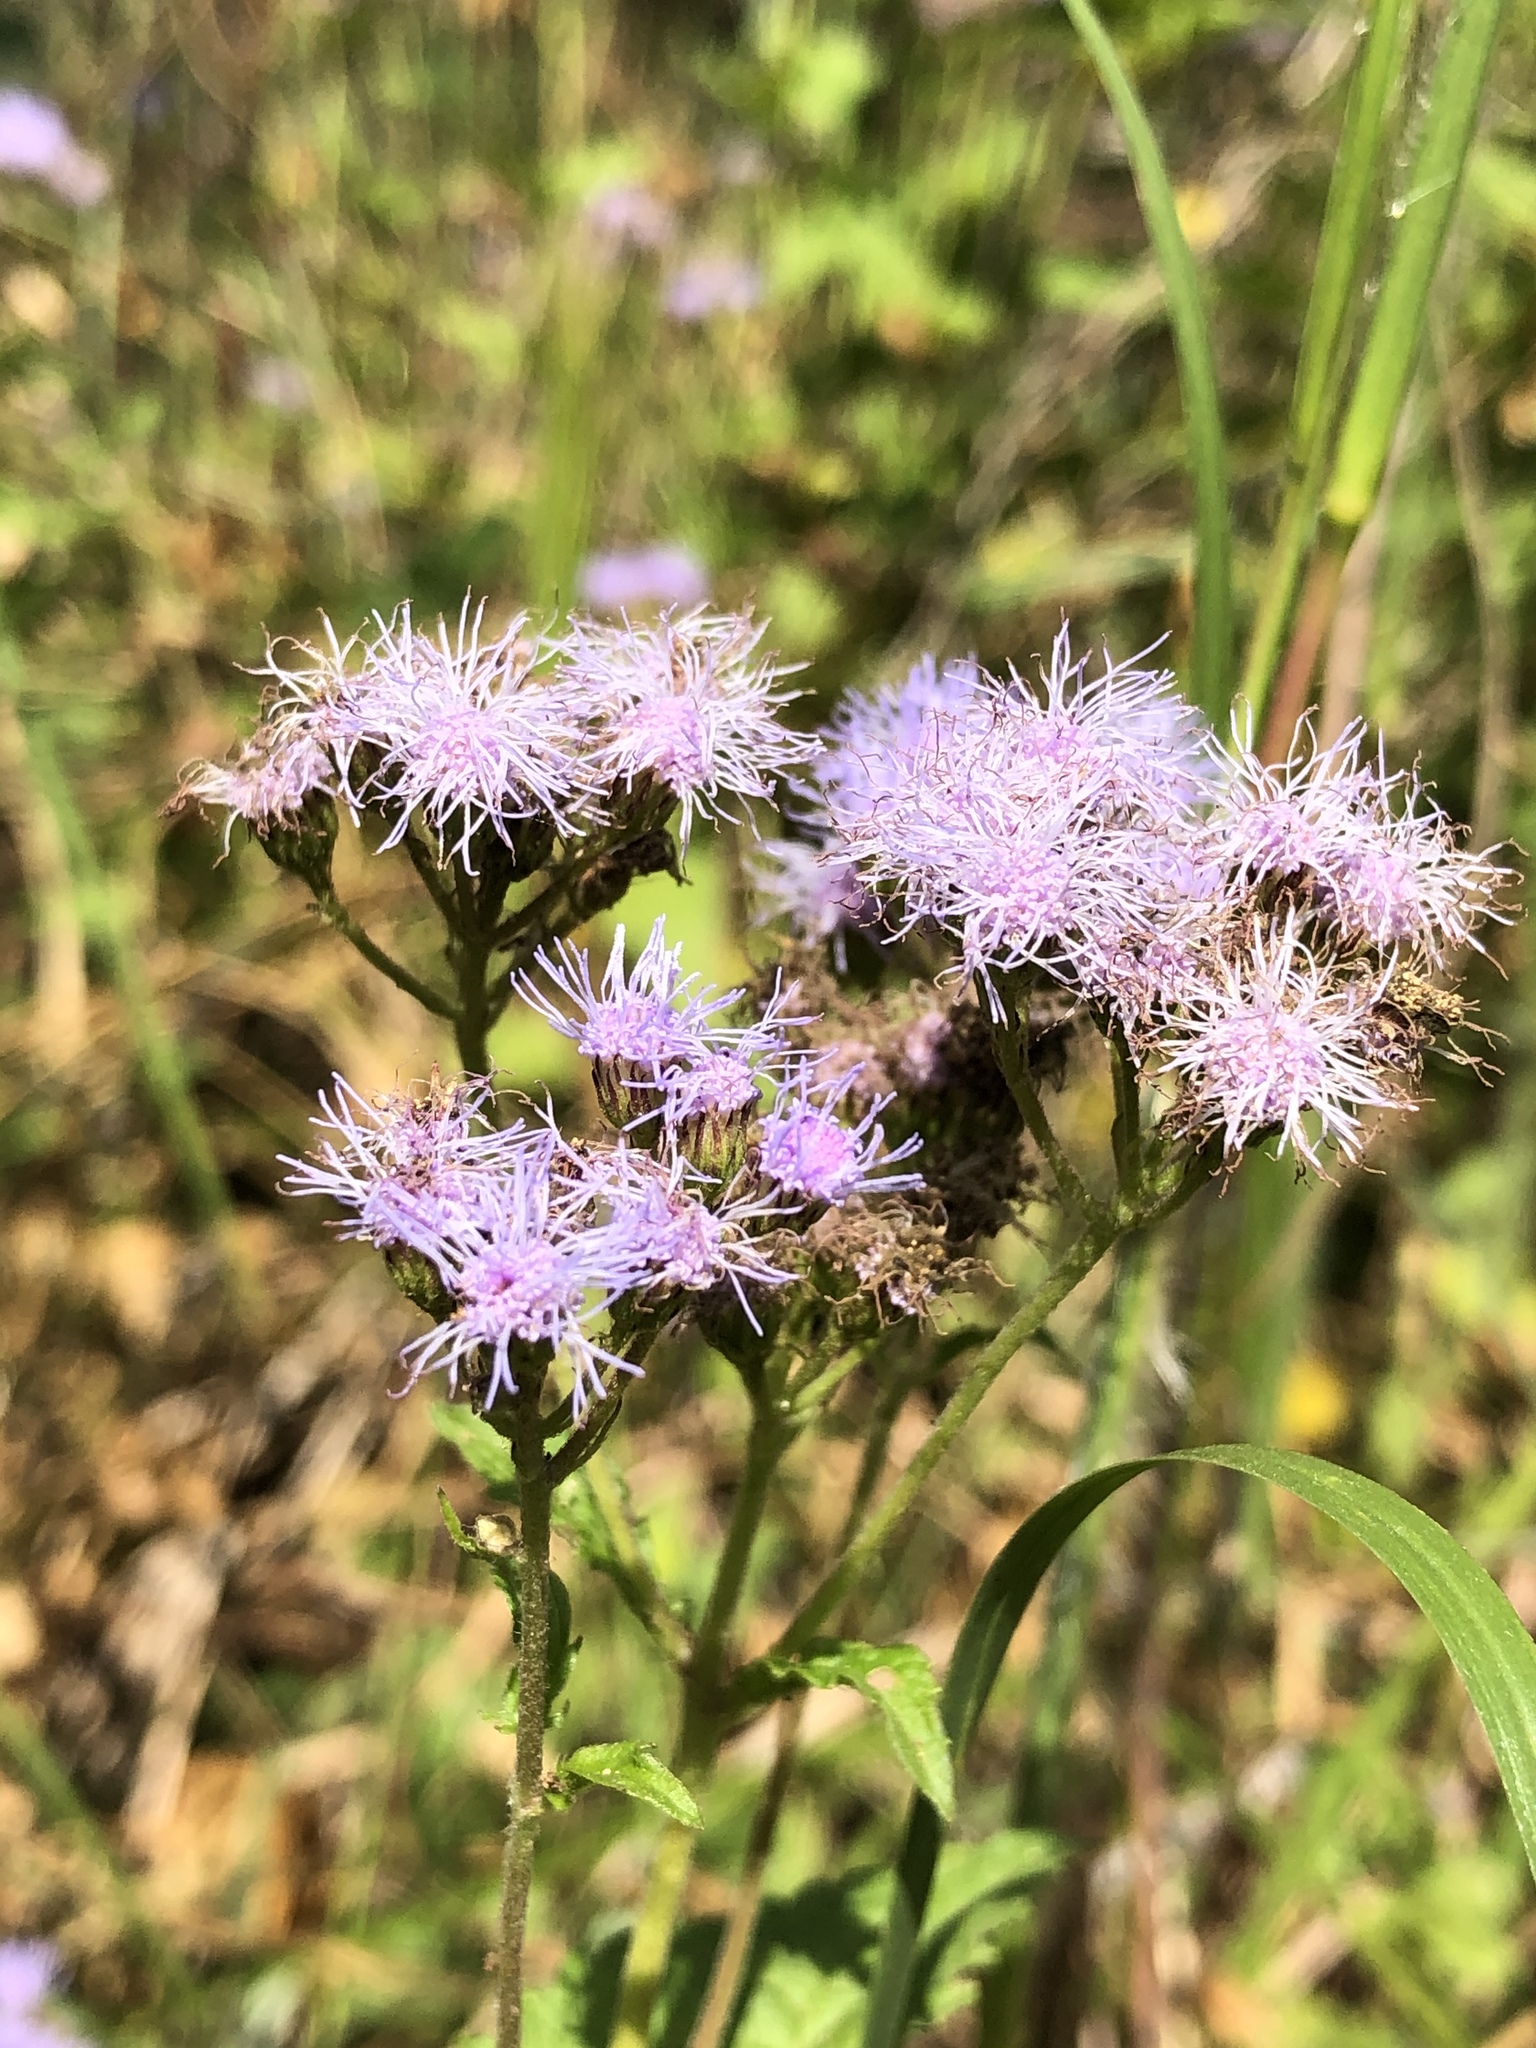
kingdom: Plantae
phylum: Tracheophyta
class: Magnoliopsida
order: Asterales
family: Asteraceae
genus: Conoclinium
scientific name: Conoclinium coelestinum
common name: Blue mistflower
